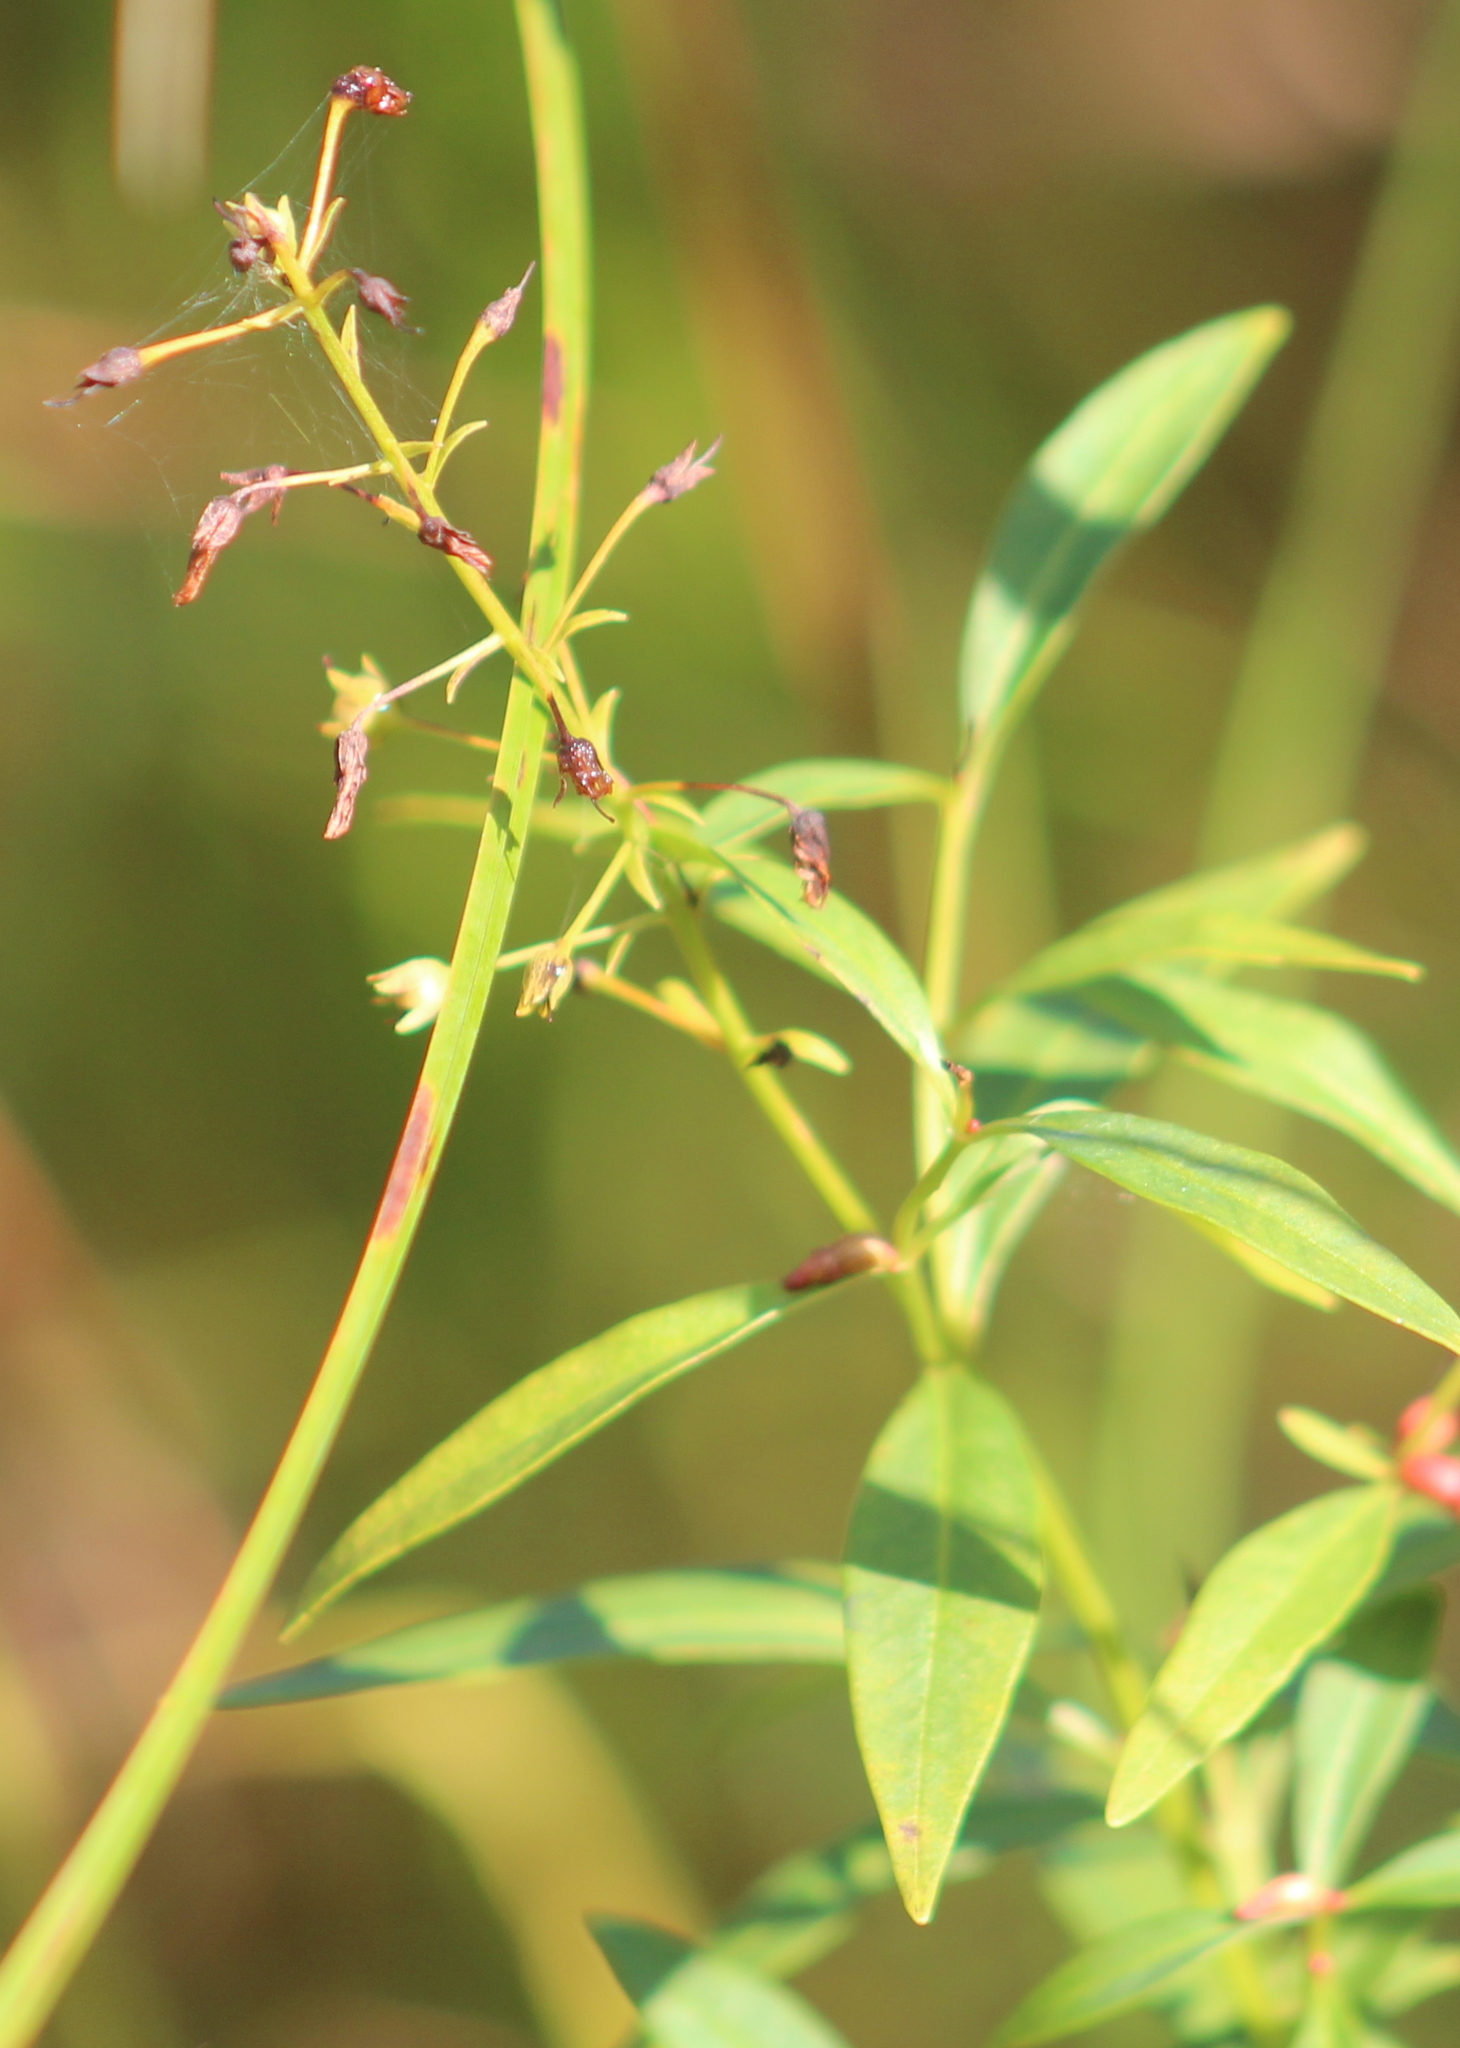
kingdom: Plantae
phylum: Tracheophyta
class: Magnoliopsida
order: Ericales
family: Primulaceae
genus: Lysimachia
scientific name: Lysimachia terrestris
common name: Lake loosestrife
